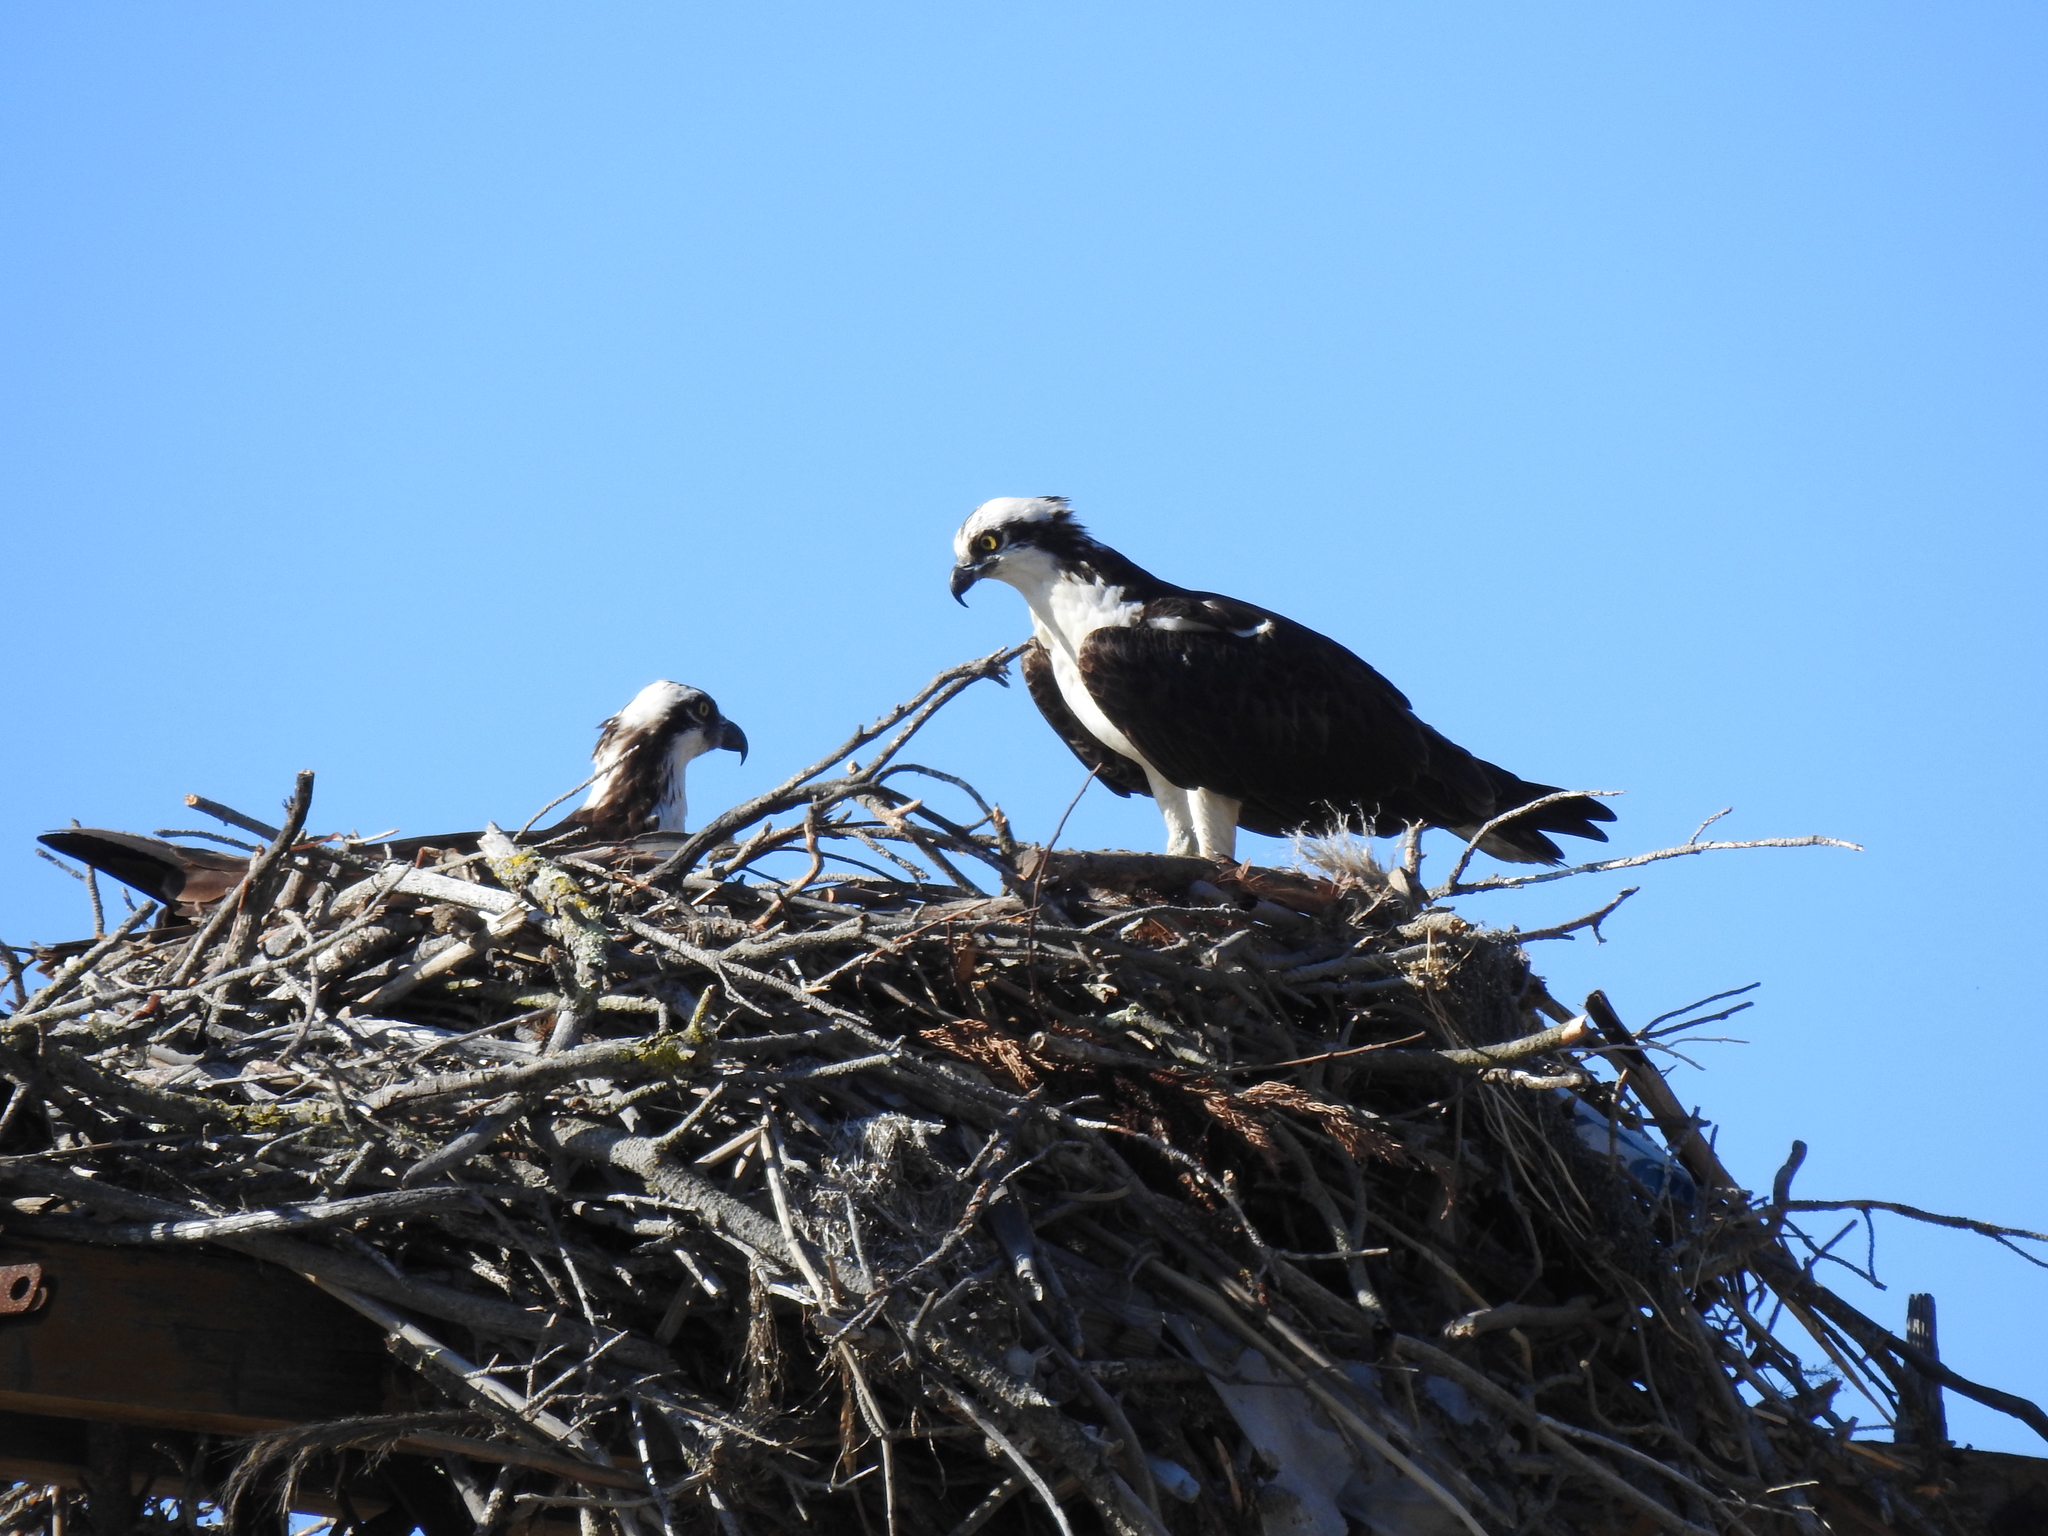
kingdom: Animalia
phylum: Chordata
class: Aves
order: Accipitriformes
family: Pandionidae
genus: Pandion
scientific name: Pandion haliaetus
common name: Osprey
